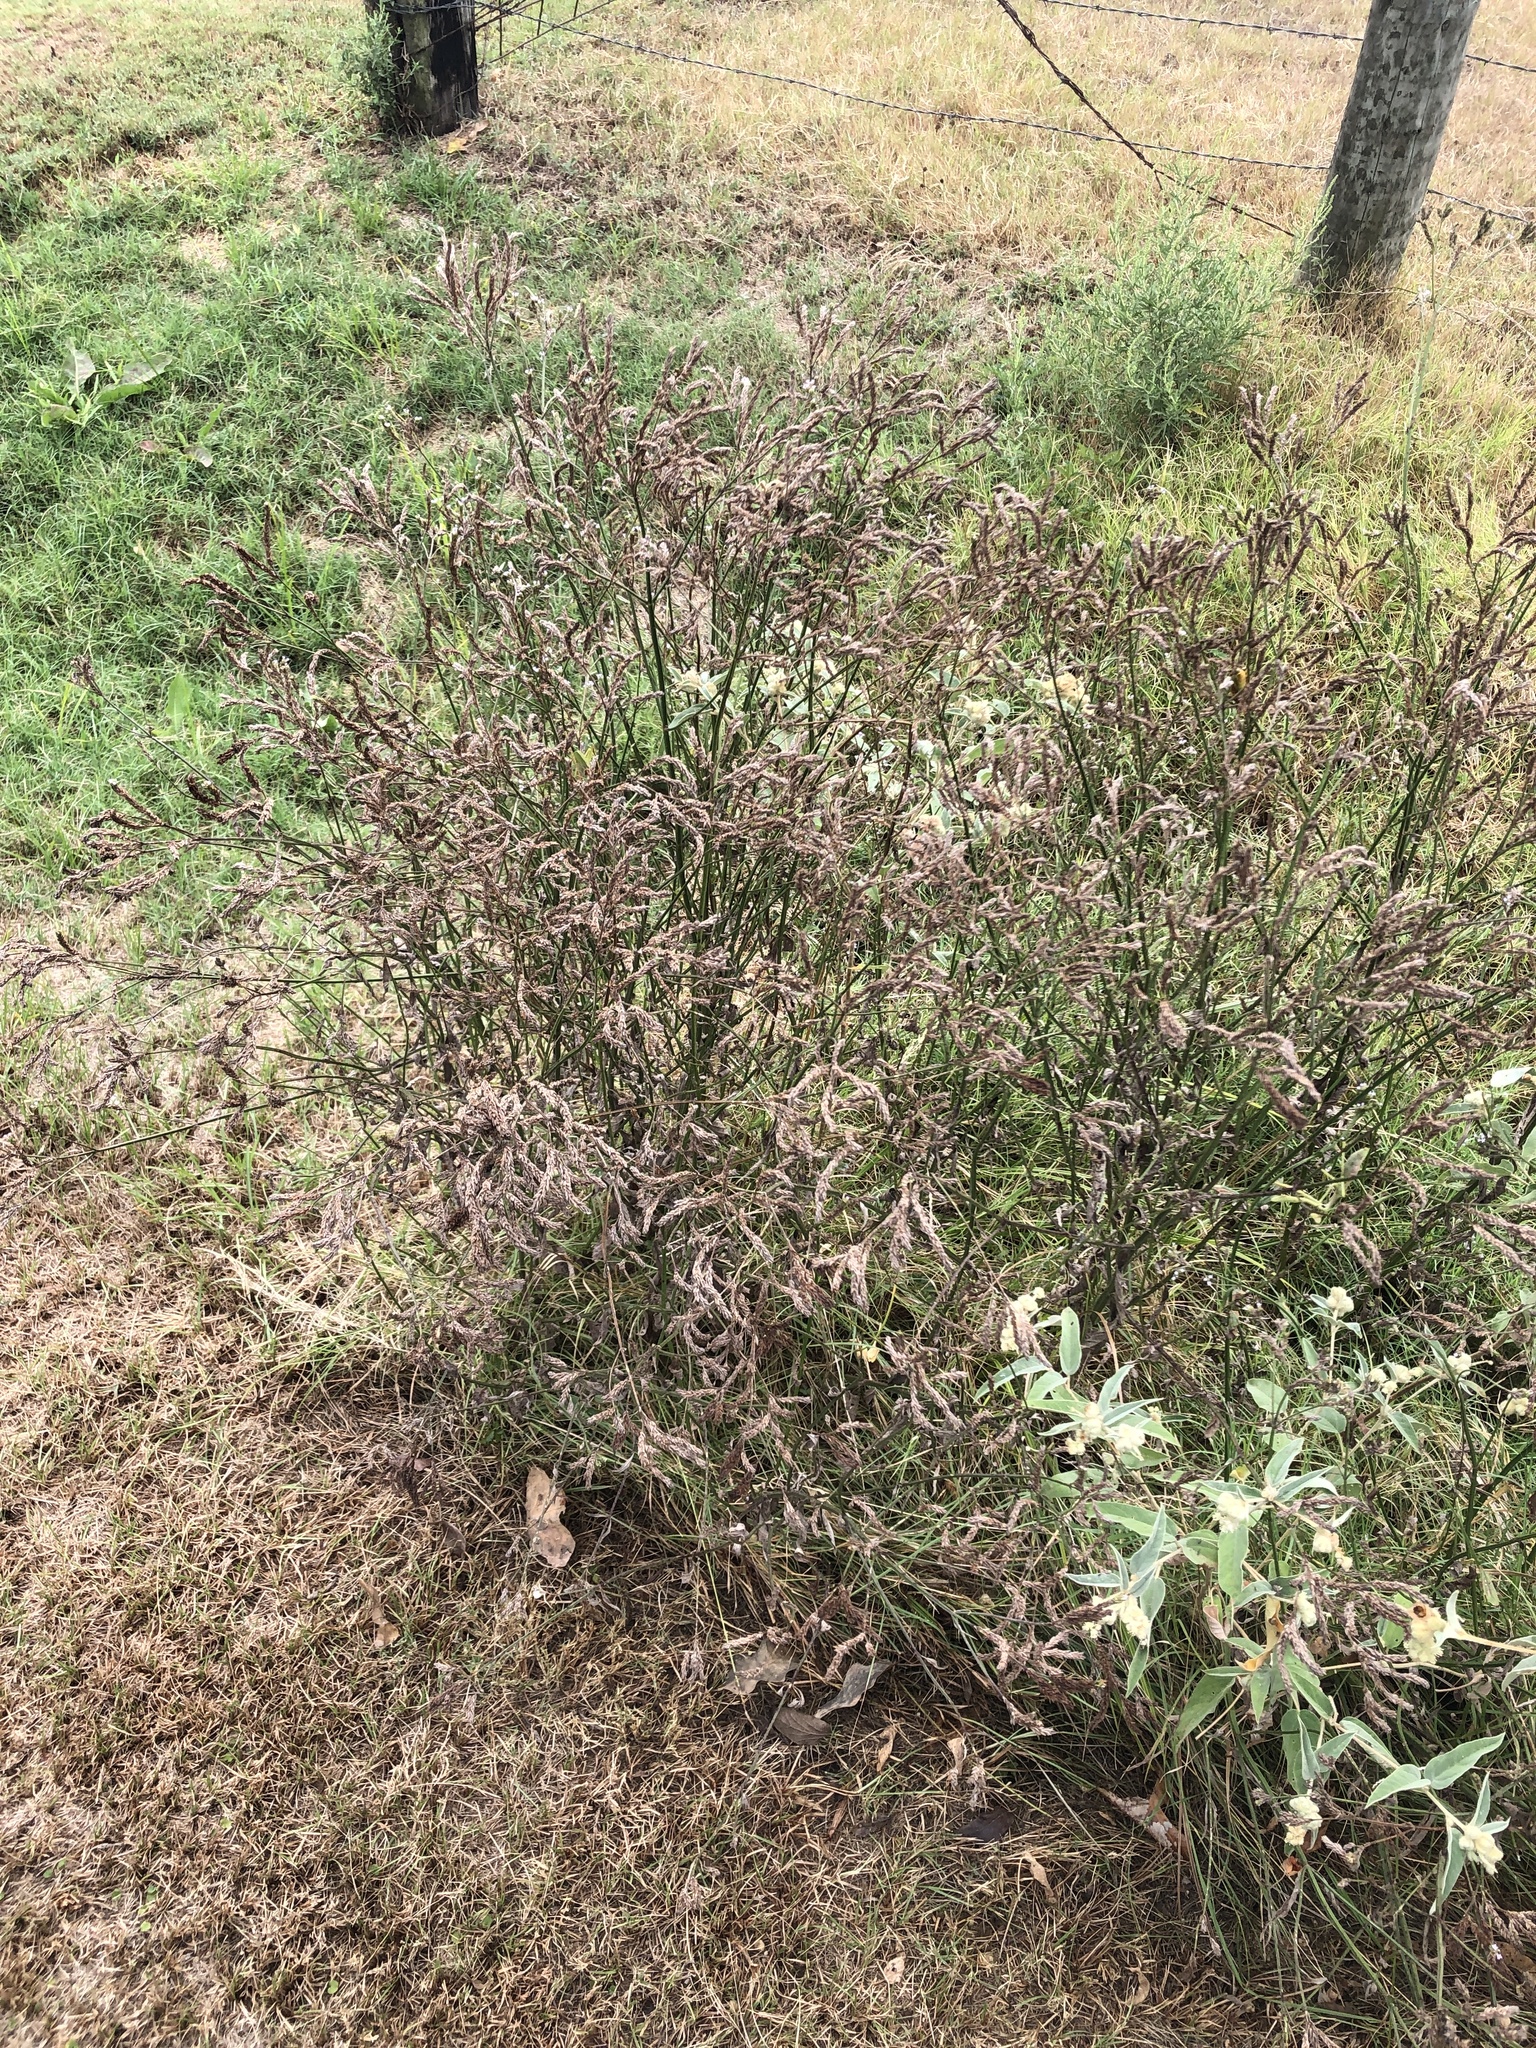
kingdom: Plantae
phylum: Tracheophyta
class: Magnoliopsida
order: Lamiales
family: Verbenaceae
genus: Verbena
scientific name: Verbena brasiliensis
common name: Brazilian vervain
